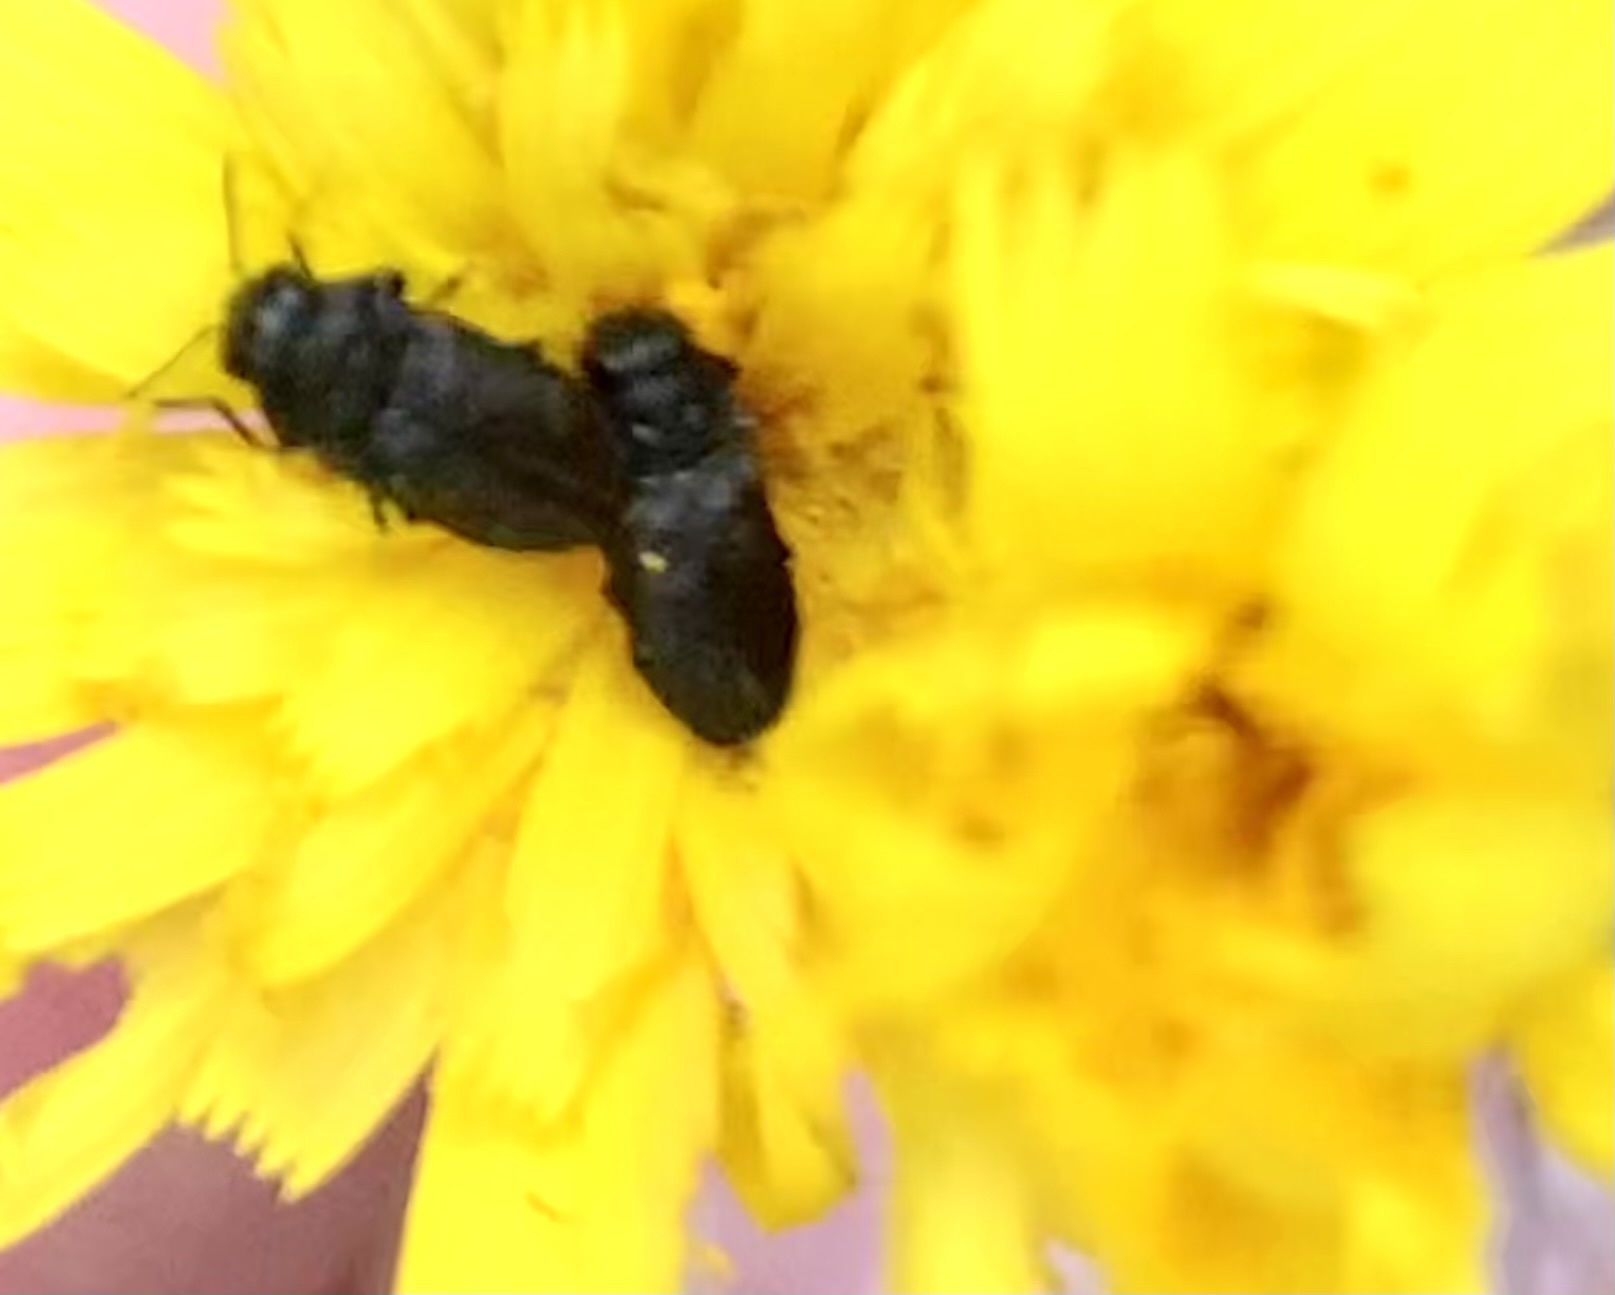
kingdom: Animalia
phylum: Arthropoda
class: Insecta
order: Coleoptera
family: Buprestidae
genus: Anthaxia
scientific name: Anthaxia quadripunctata
